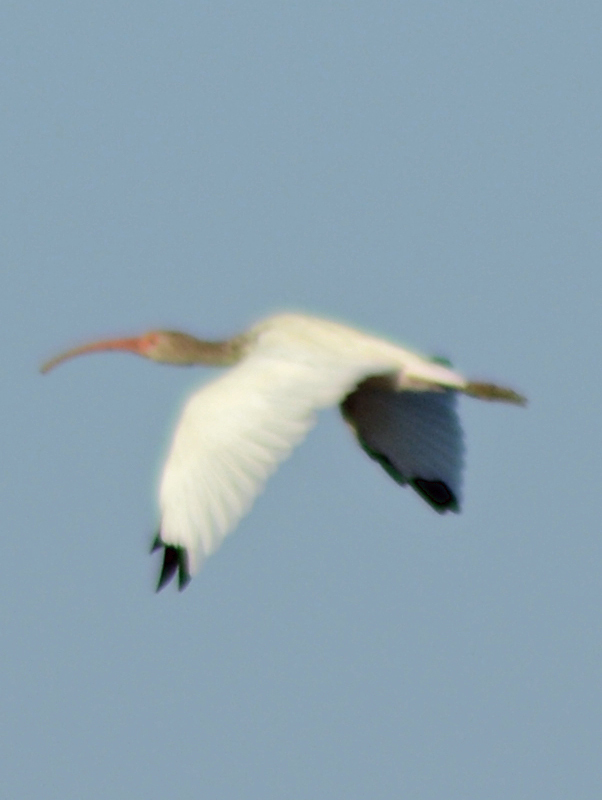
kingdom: Animalia
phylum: Chordata
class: Aves
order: Pelecaniformes
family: Threskiornithidae
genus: Eudocimus
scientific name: Eudocimus albus
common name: White ibis
